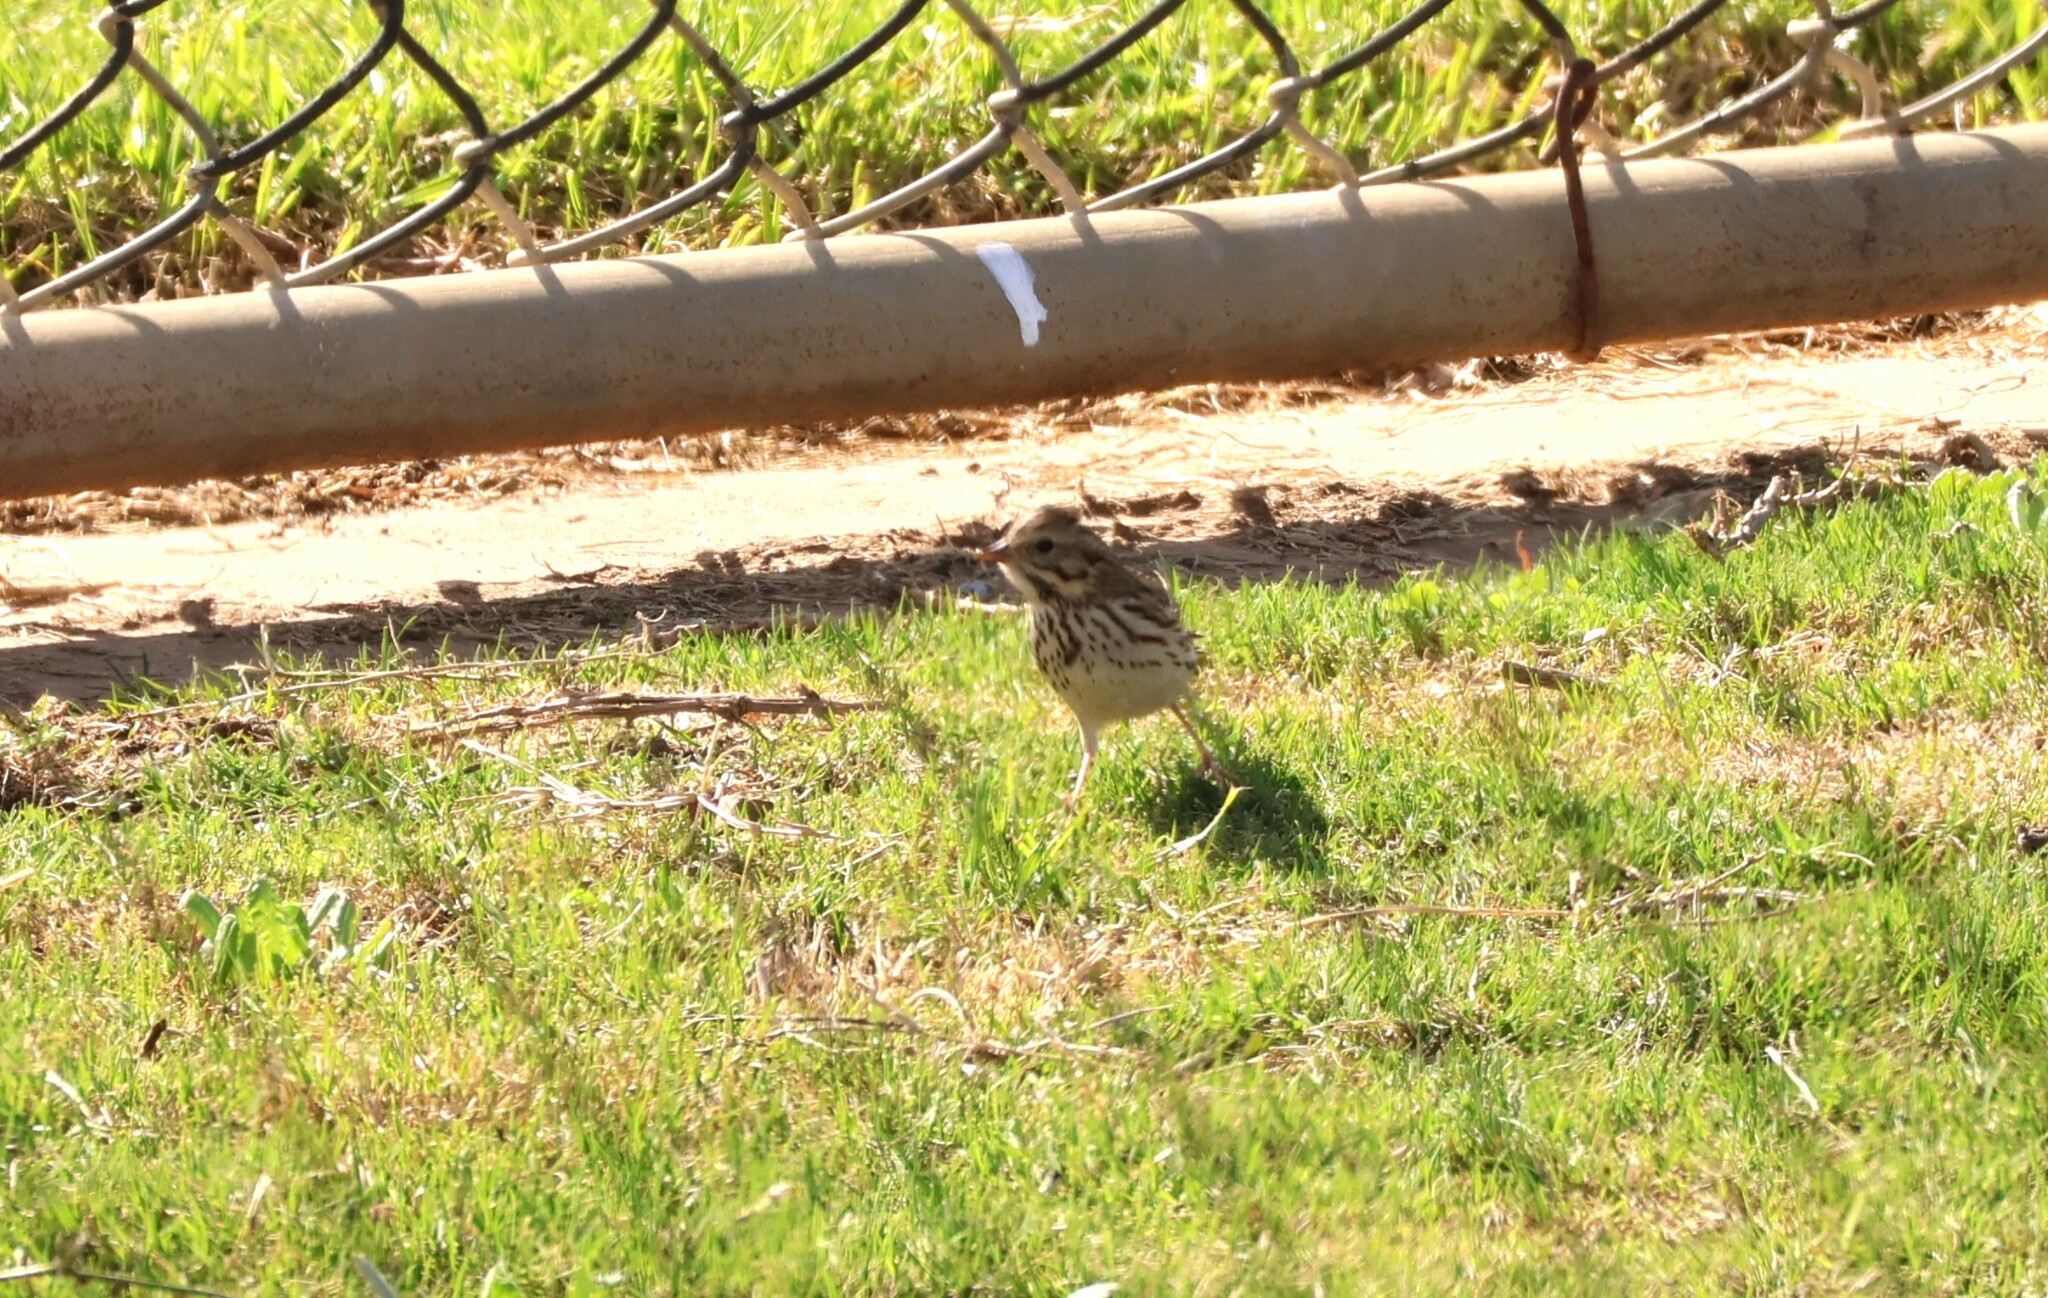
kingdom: Animalia
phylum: Chordata
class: Aves
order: Passeriformes
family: Passerellidae
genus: Passerculus
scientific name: Passerculus sandwichensis
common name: Savannah sparrow
